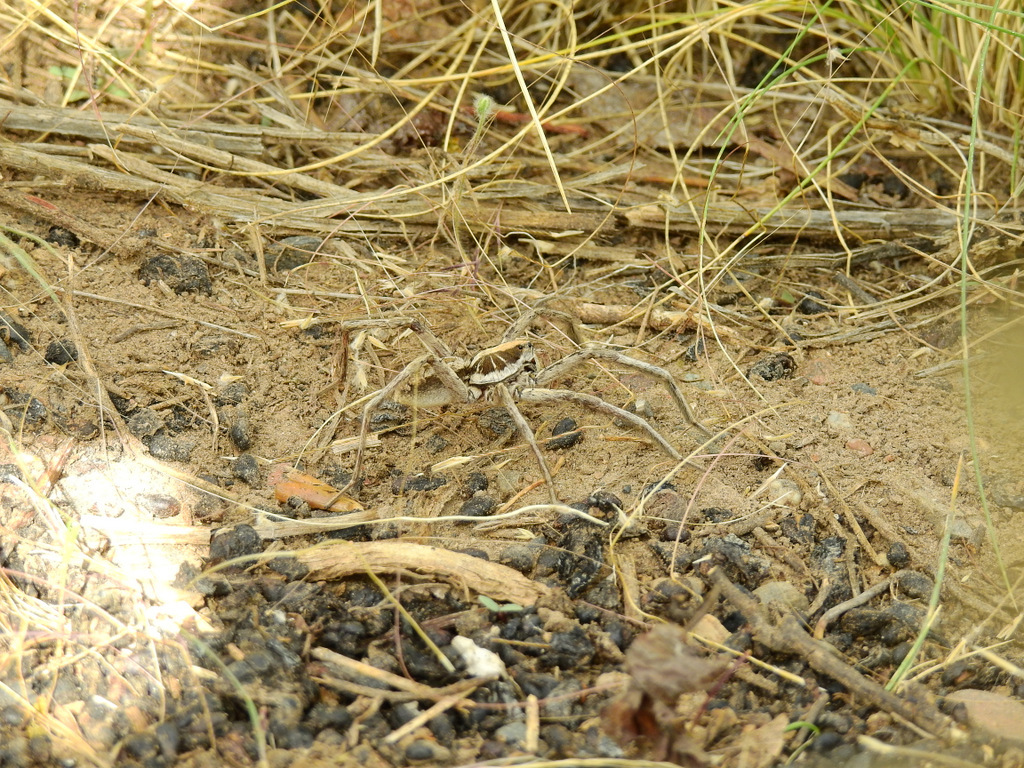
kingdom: Animalia
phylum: Arthropoda
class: Arachnida
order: Araneae
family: Lycosidae
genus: Schizocosa
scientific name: Schizocosa malitiosa
